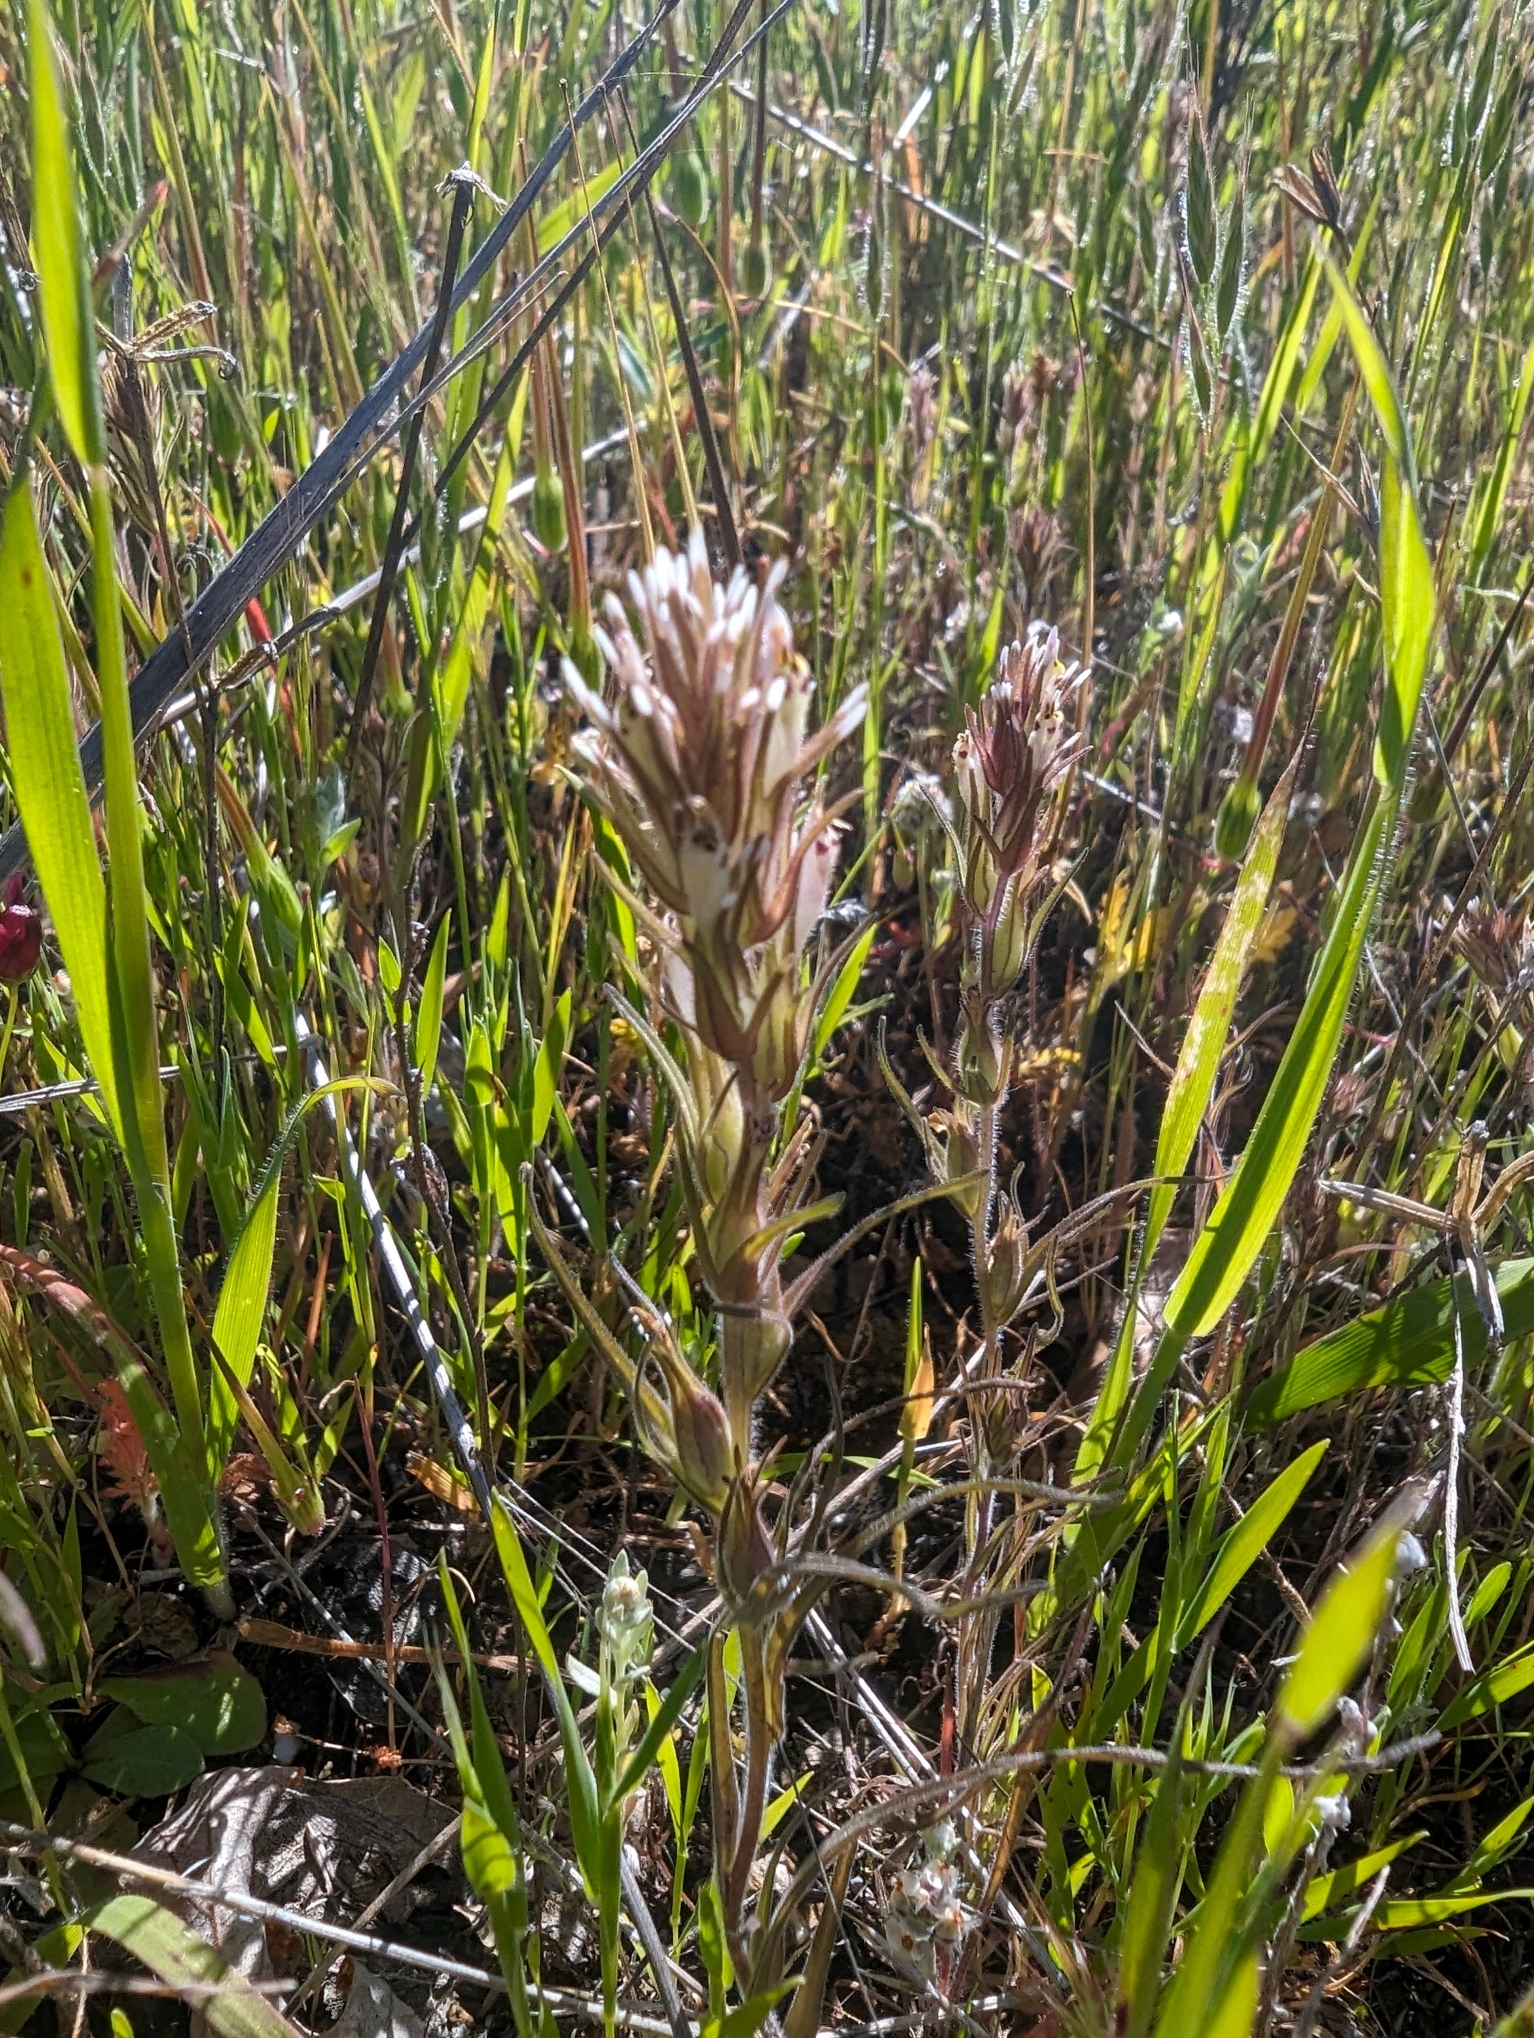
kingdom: Plantae
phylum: Tracheophyta
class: Magnoliopsida
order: Lamiales
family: Orobanchaceae
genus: Castilleja
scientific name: Castilleja attenuata
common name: Valley tassels
